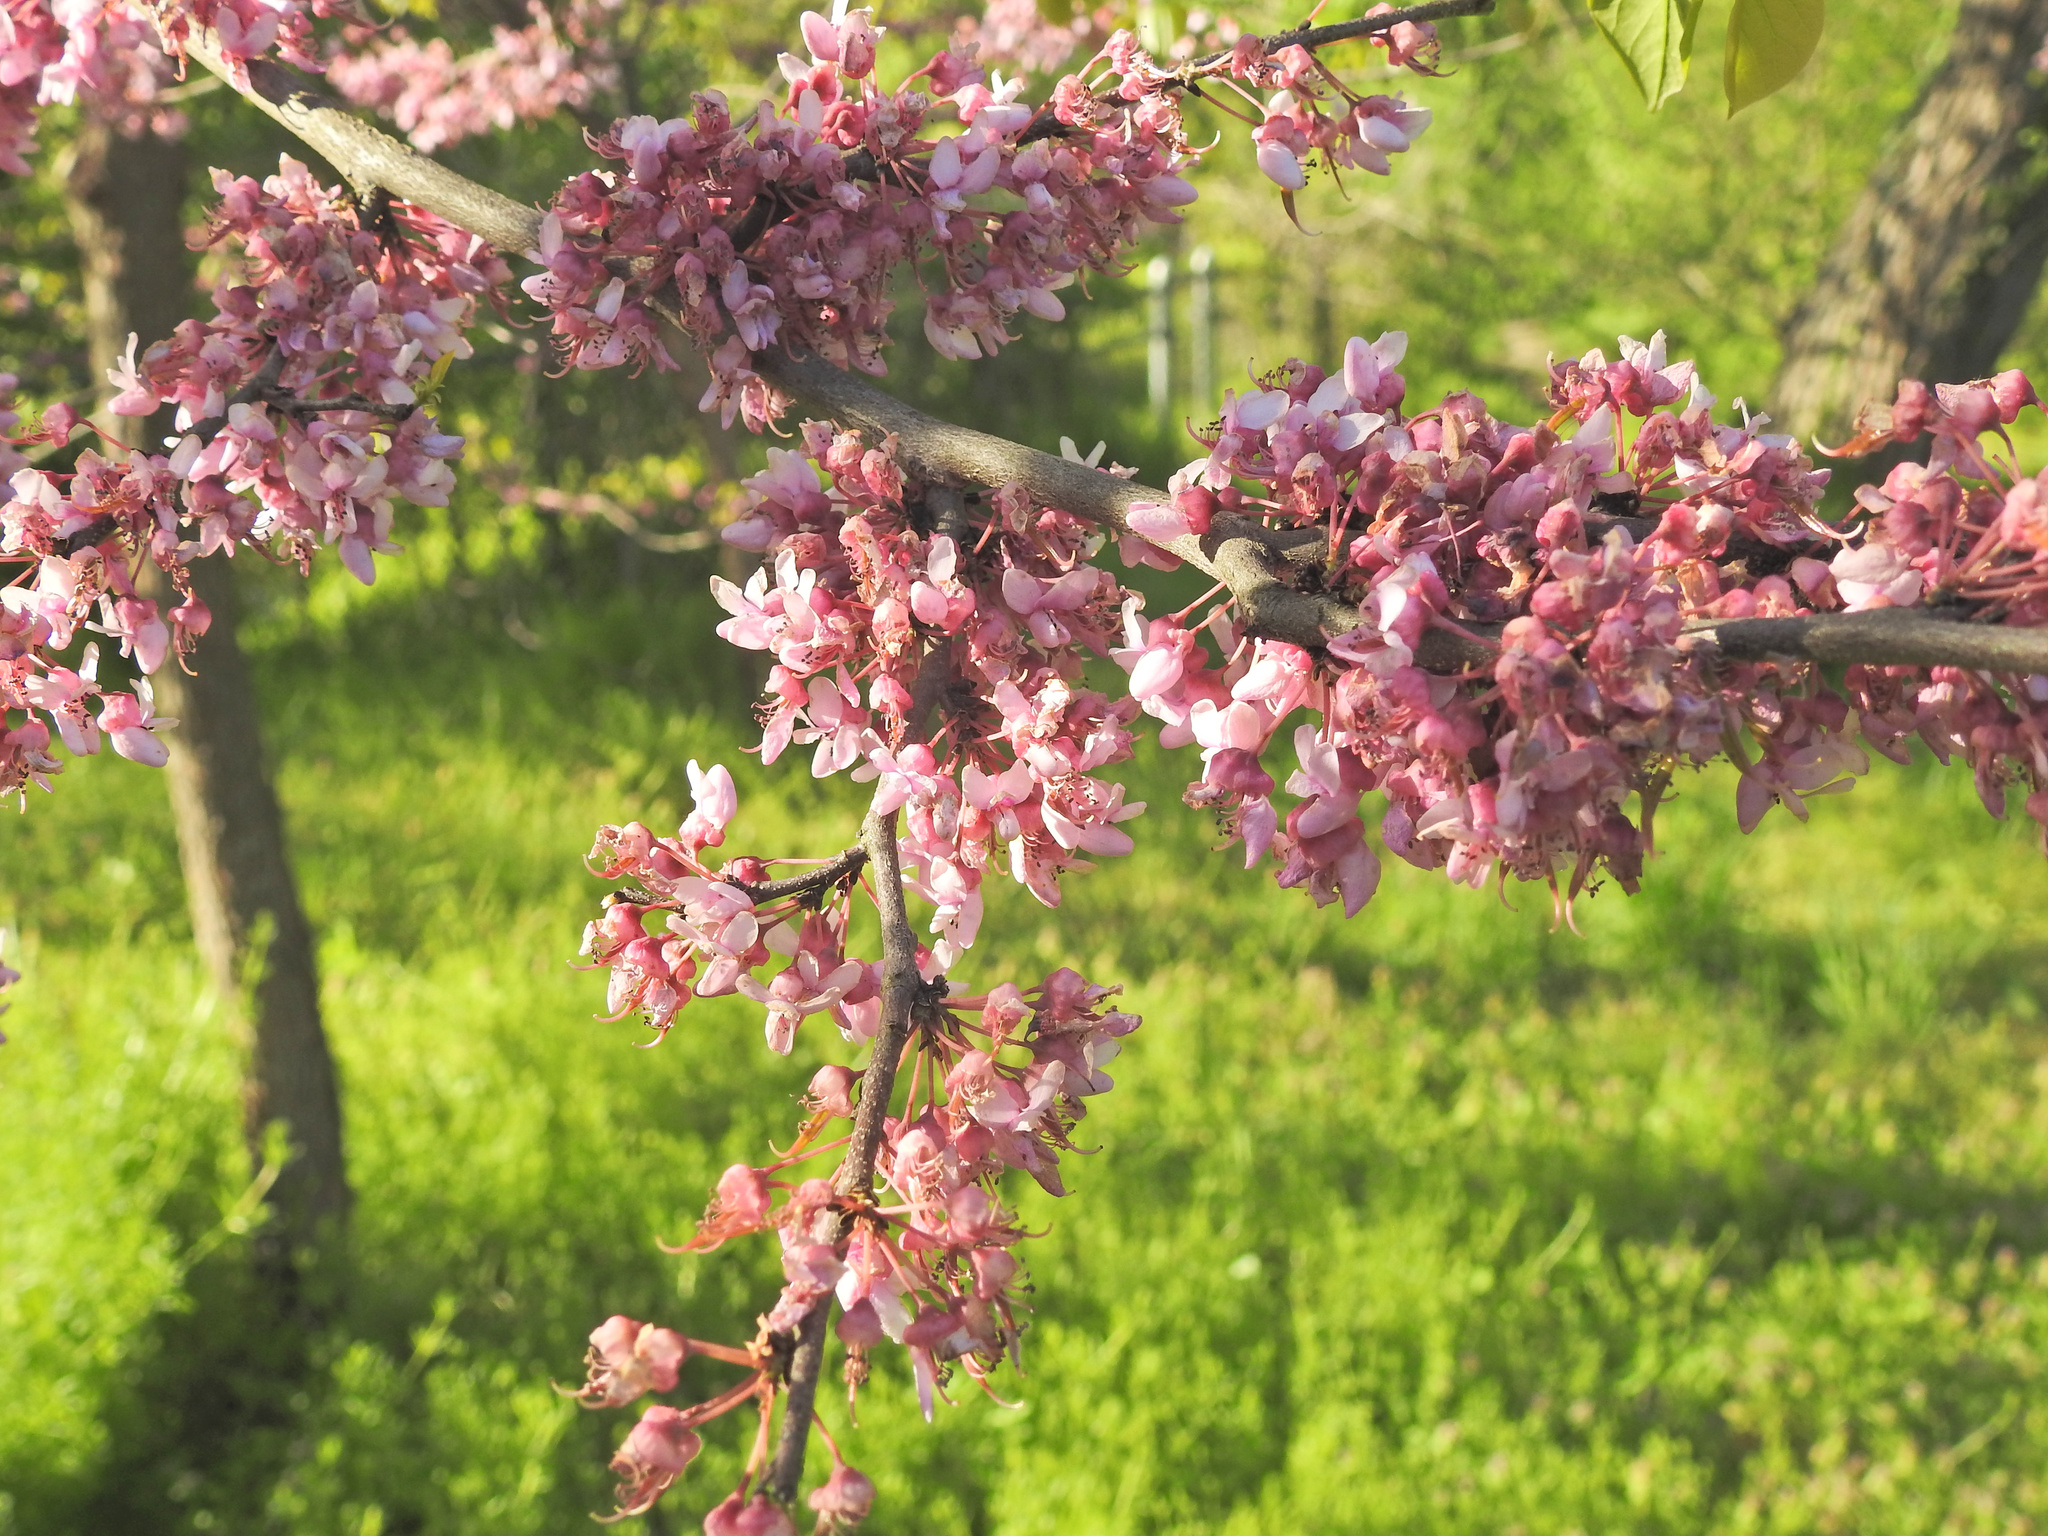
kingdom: Plantae
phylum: Tracheophyta
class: Magnoliopsida
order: Fabales
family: Fabaceae
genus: Cercis
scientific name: Cercis canadensis
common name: Eastern redbud
